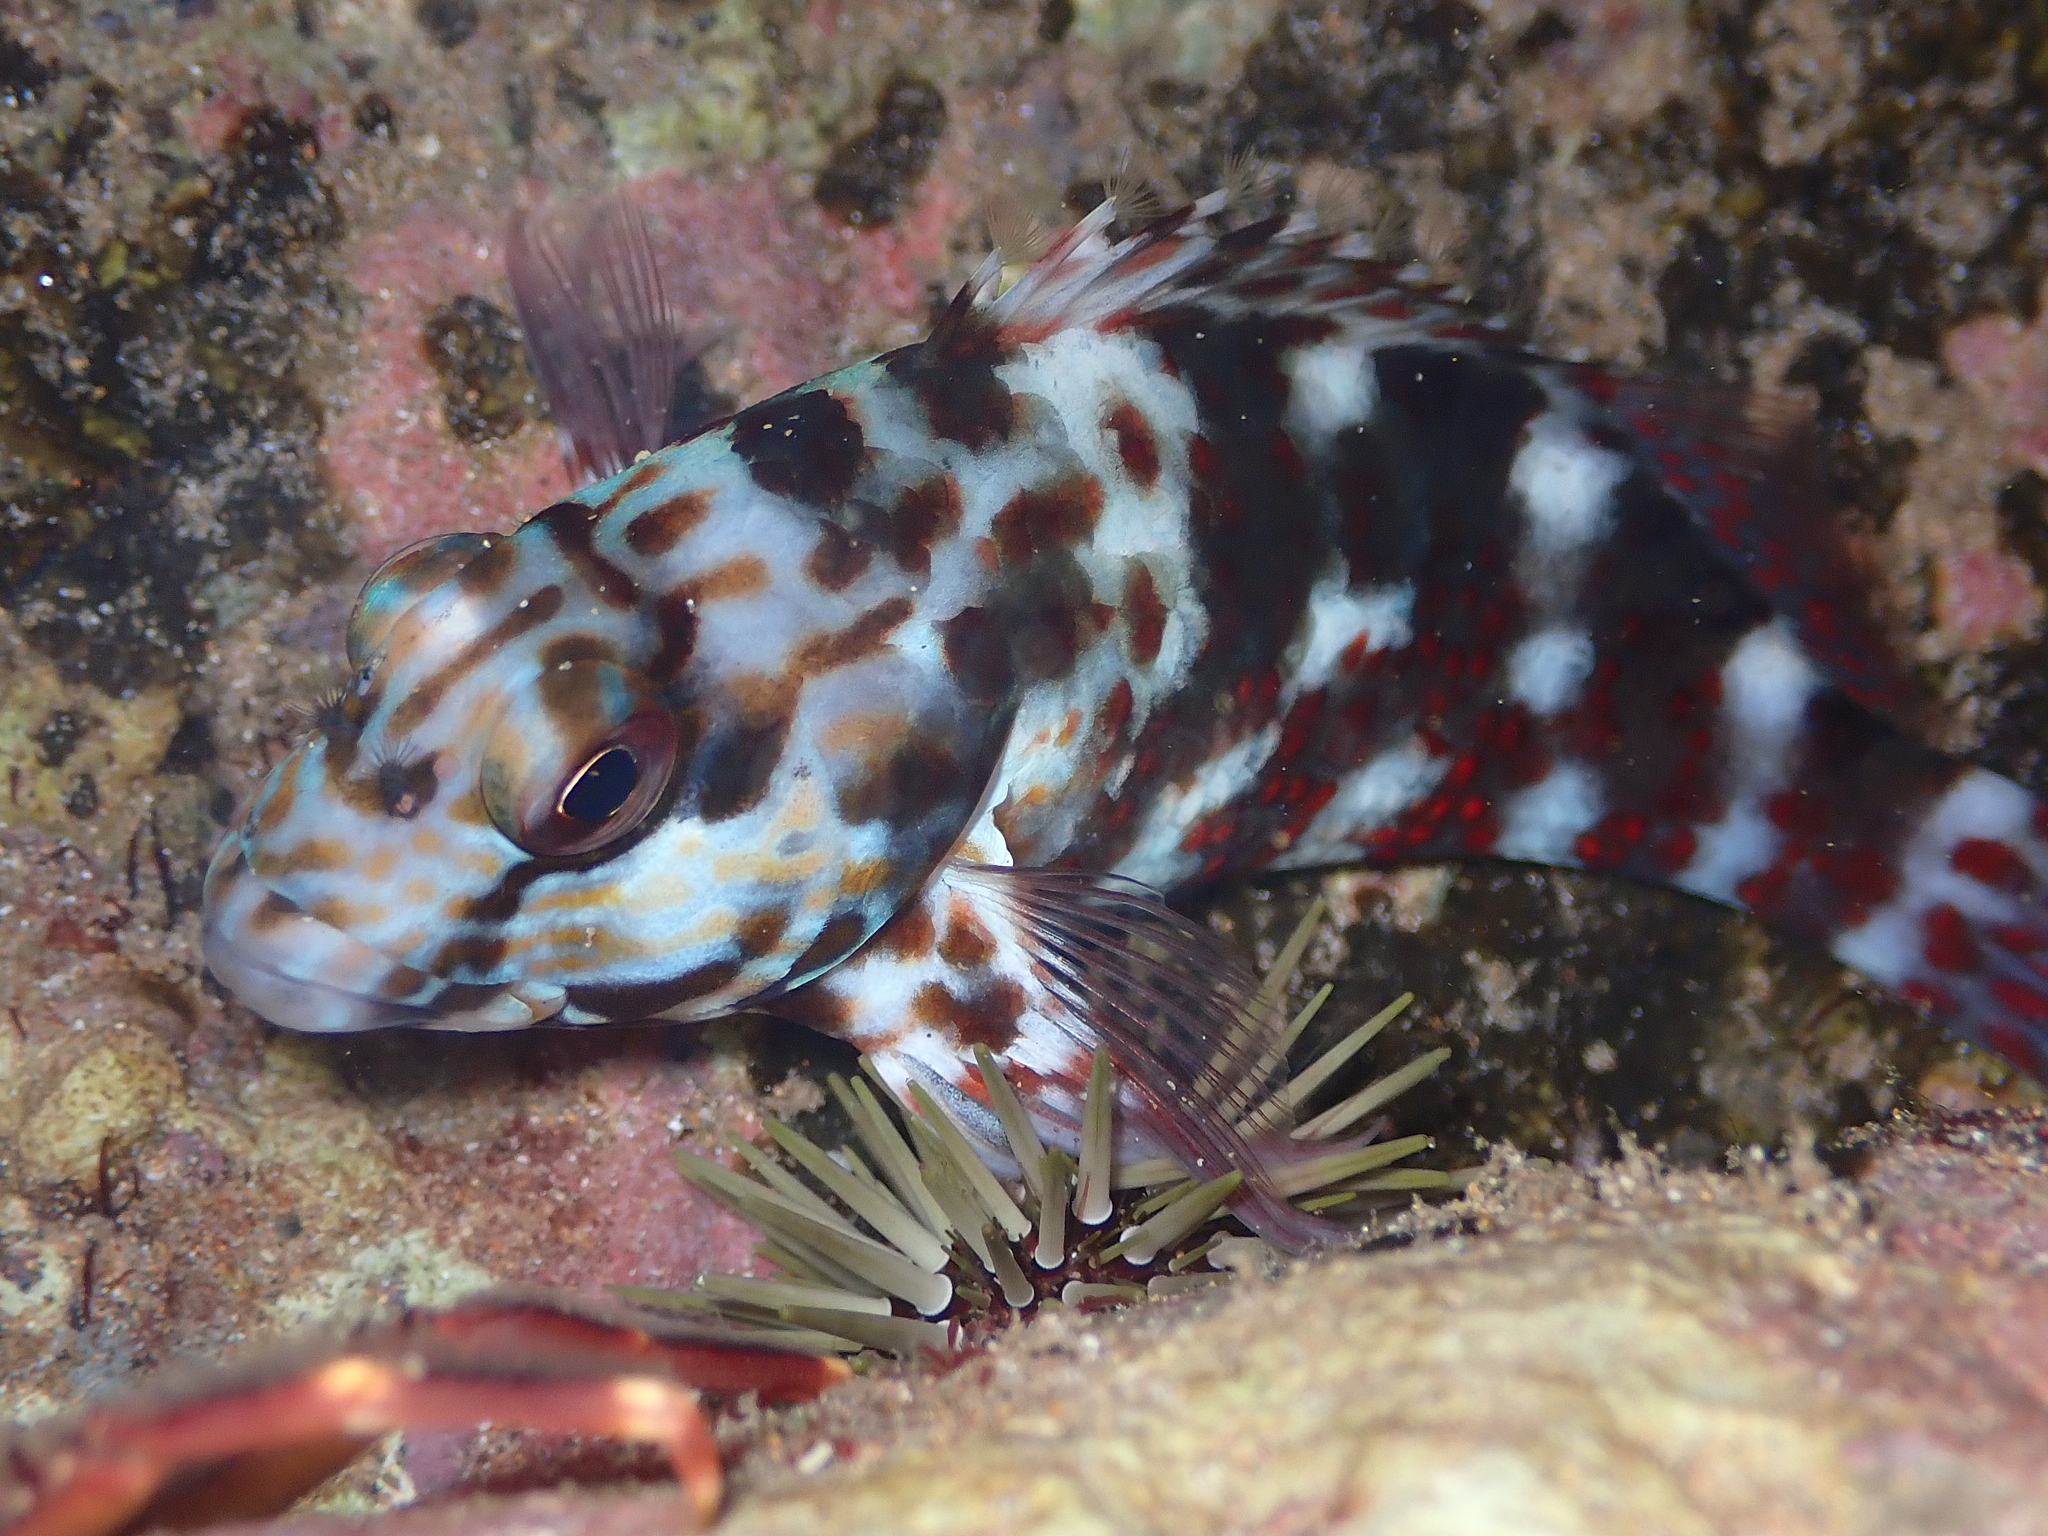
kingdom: Animalia
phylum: Chordata
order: Perciformes
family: Cirrhitidae
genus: Cirrhitus
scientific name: Cirrhitus pinnulatus
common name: Stocky hawkfish
